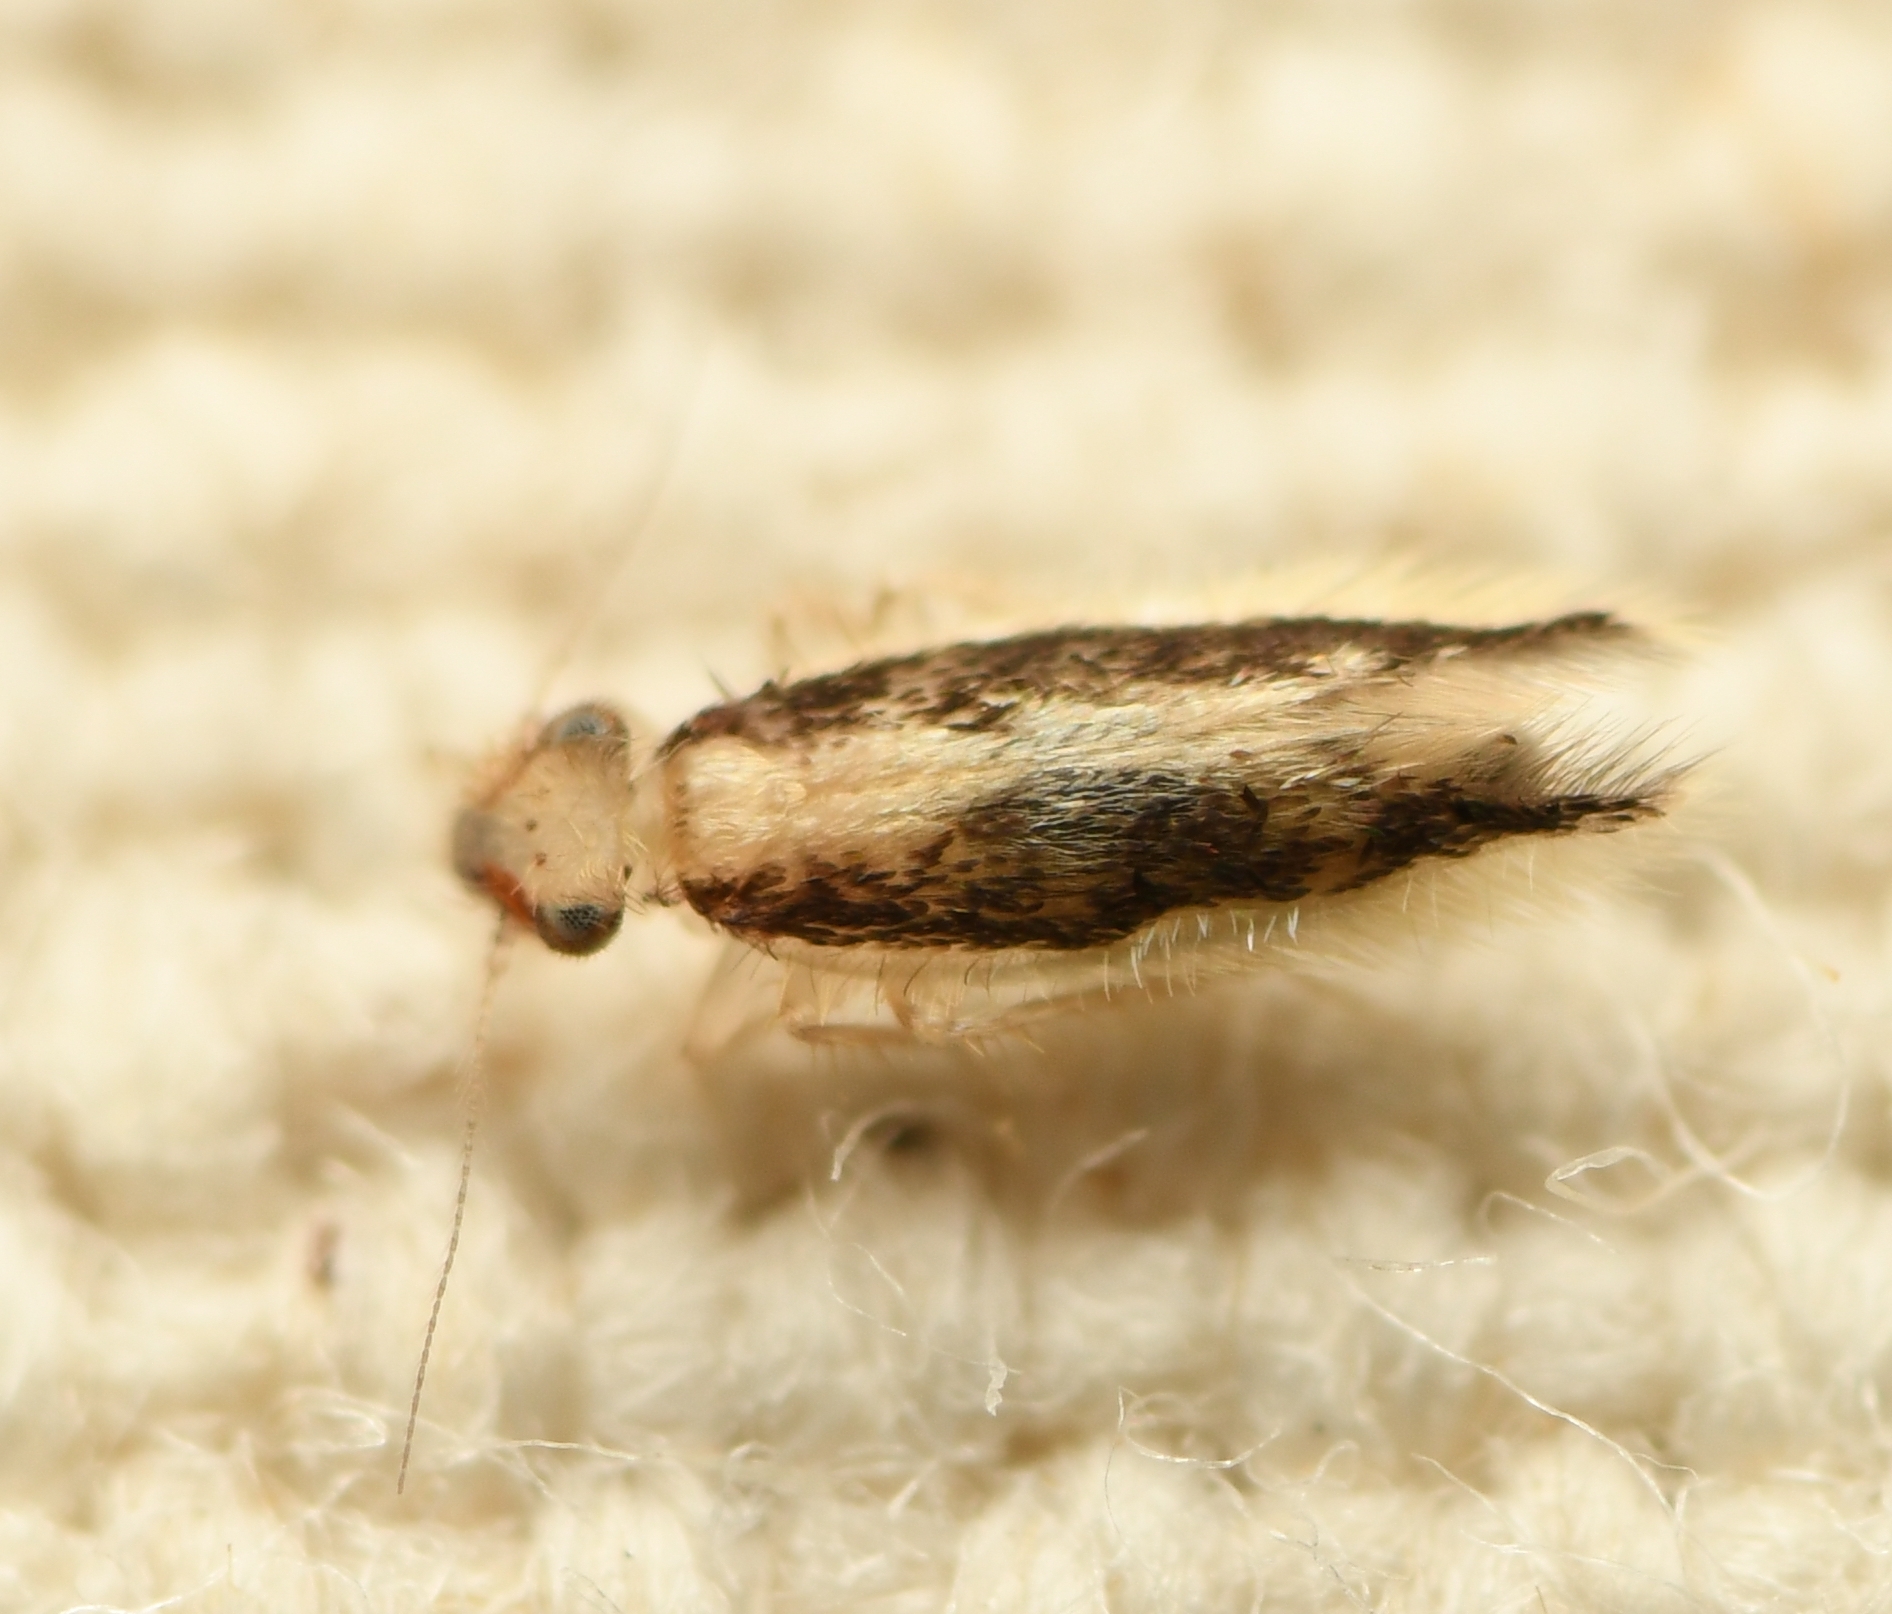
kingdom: Animalia
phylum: Arthropoda
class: Insecta
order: Psocodea
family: Lepidopsocidae
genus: Echmepteryx
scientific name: Echmepteryx madagascariensis
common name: Bark lice
